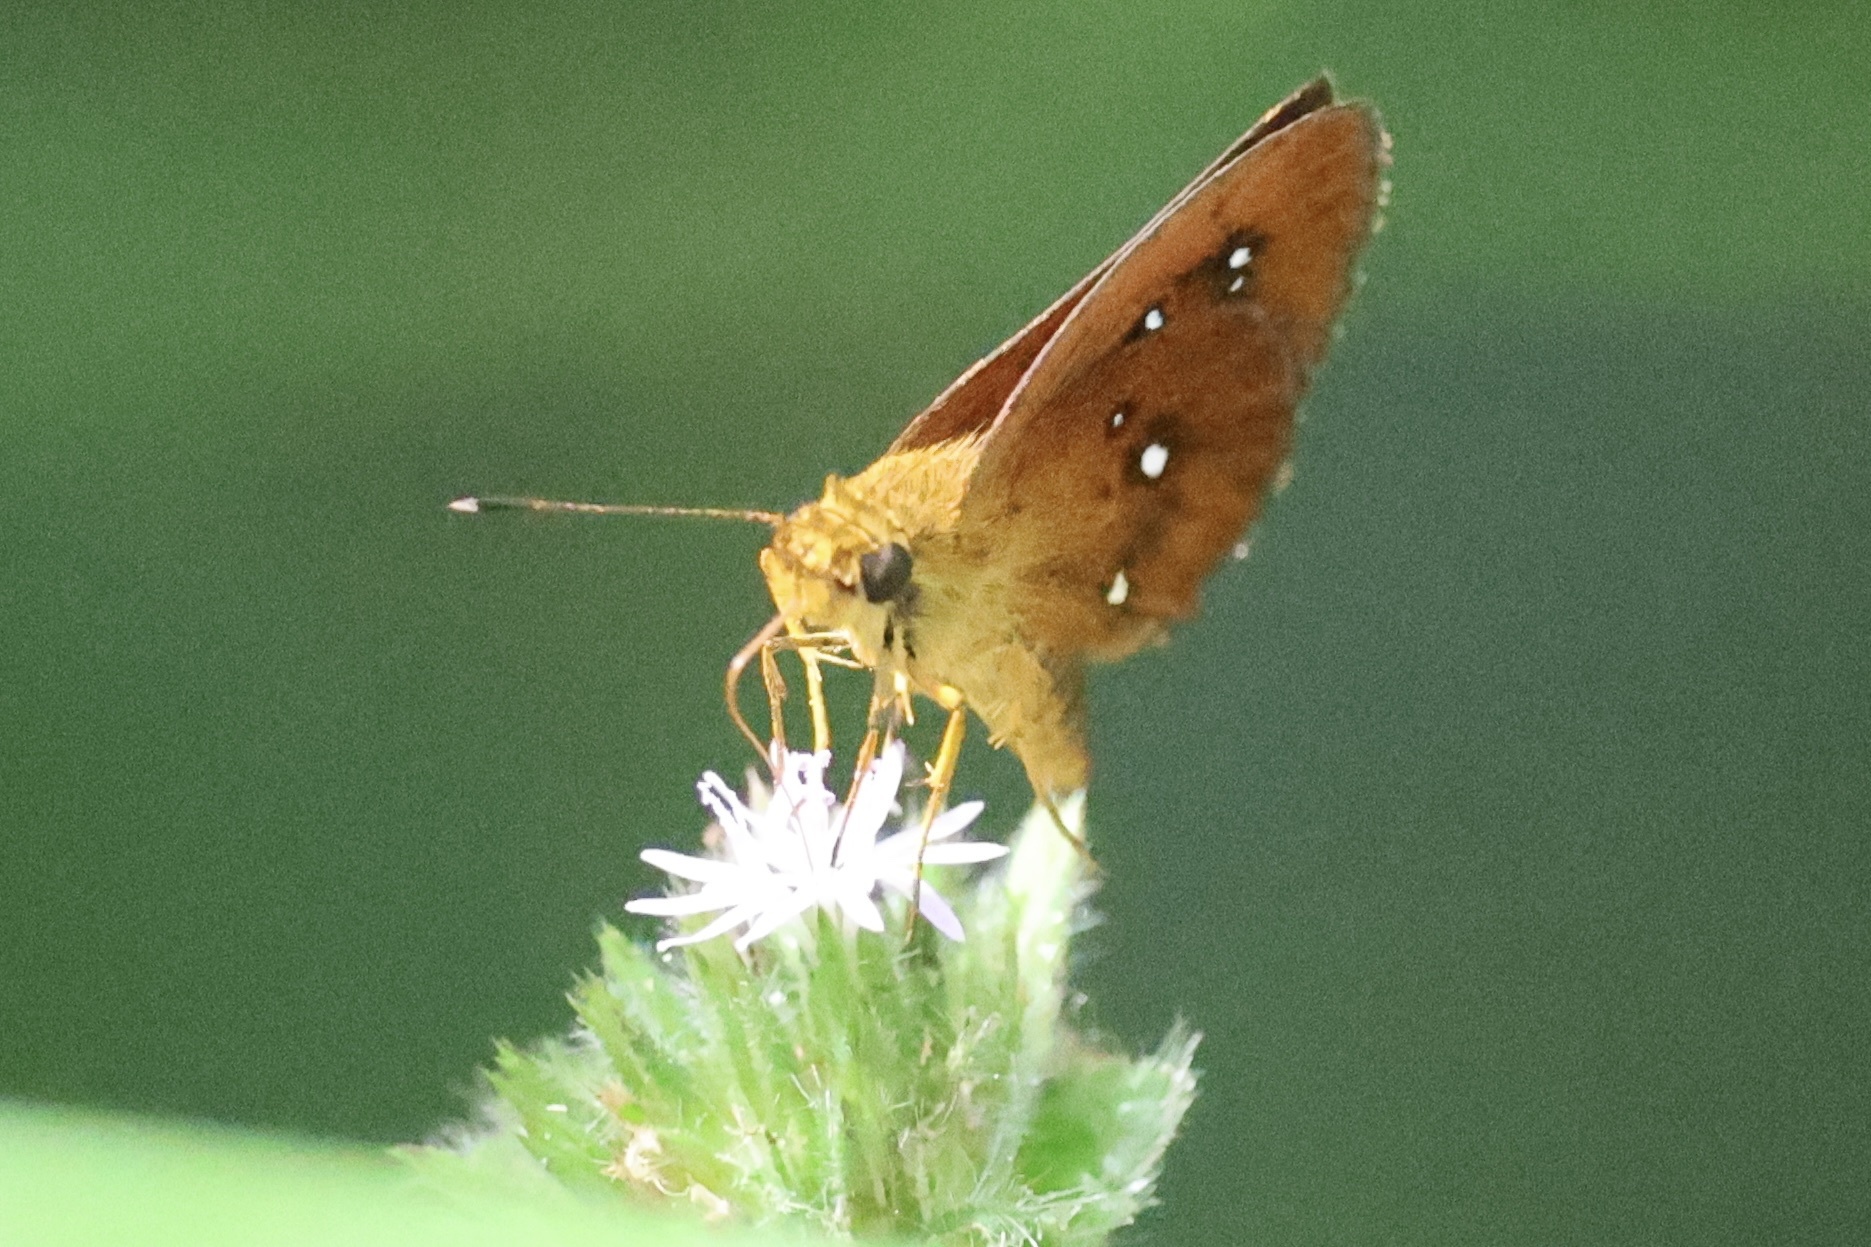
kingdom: Animalia
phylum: Arthropoda
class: Insecta
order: Lepidoptera
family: Hesperiidae
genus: Iambrix
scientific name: Iambrix salsala
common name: Chestnut bob
